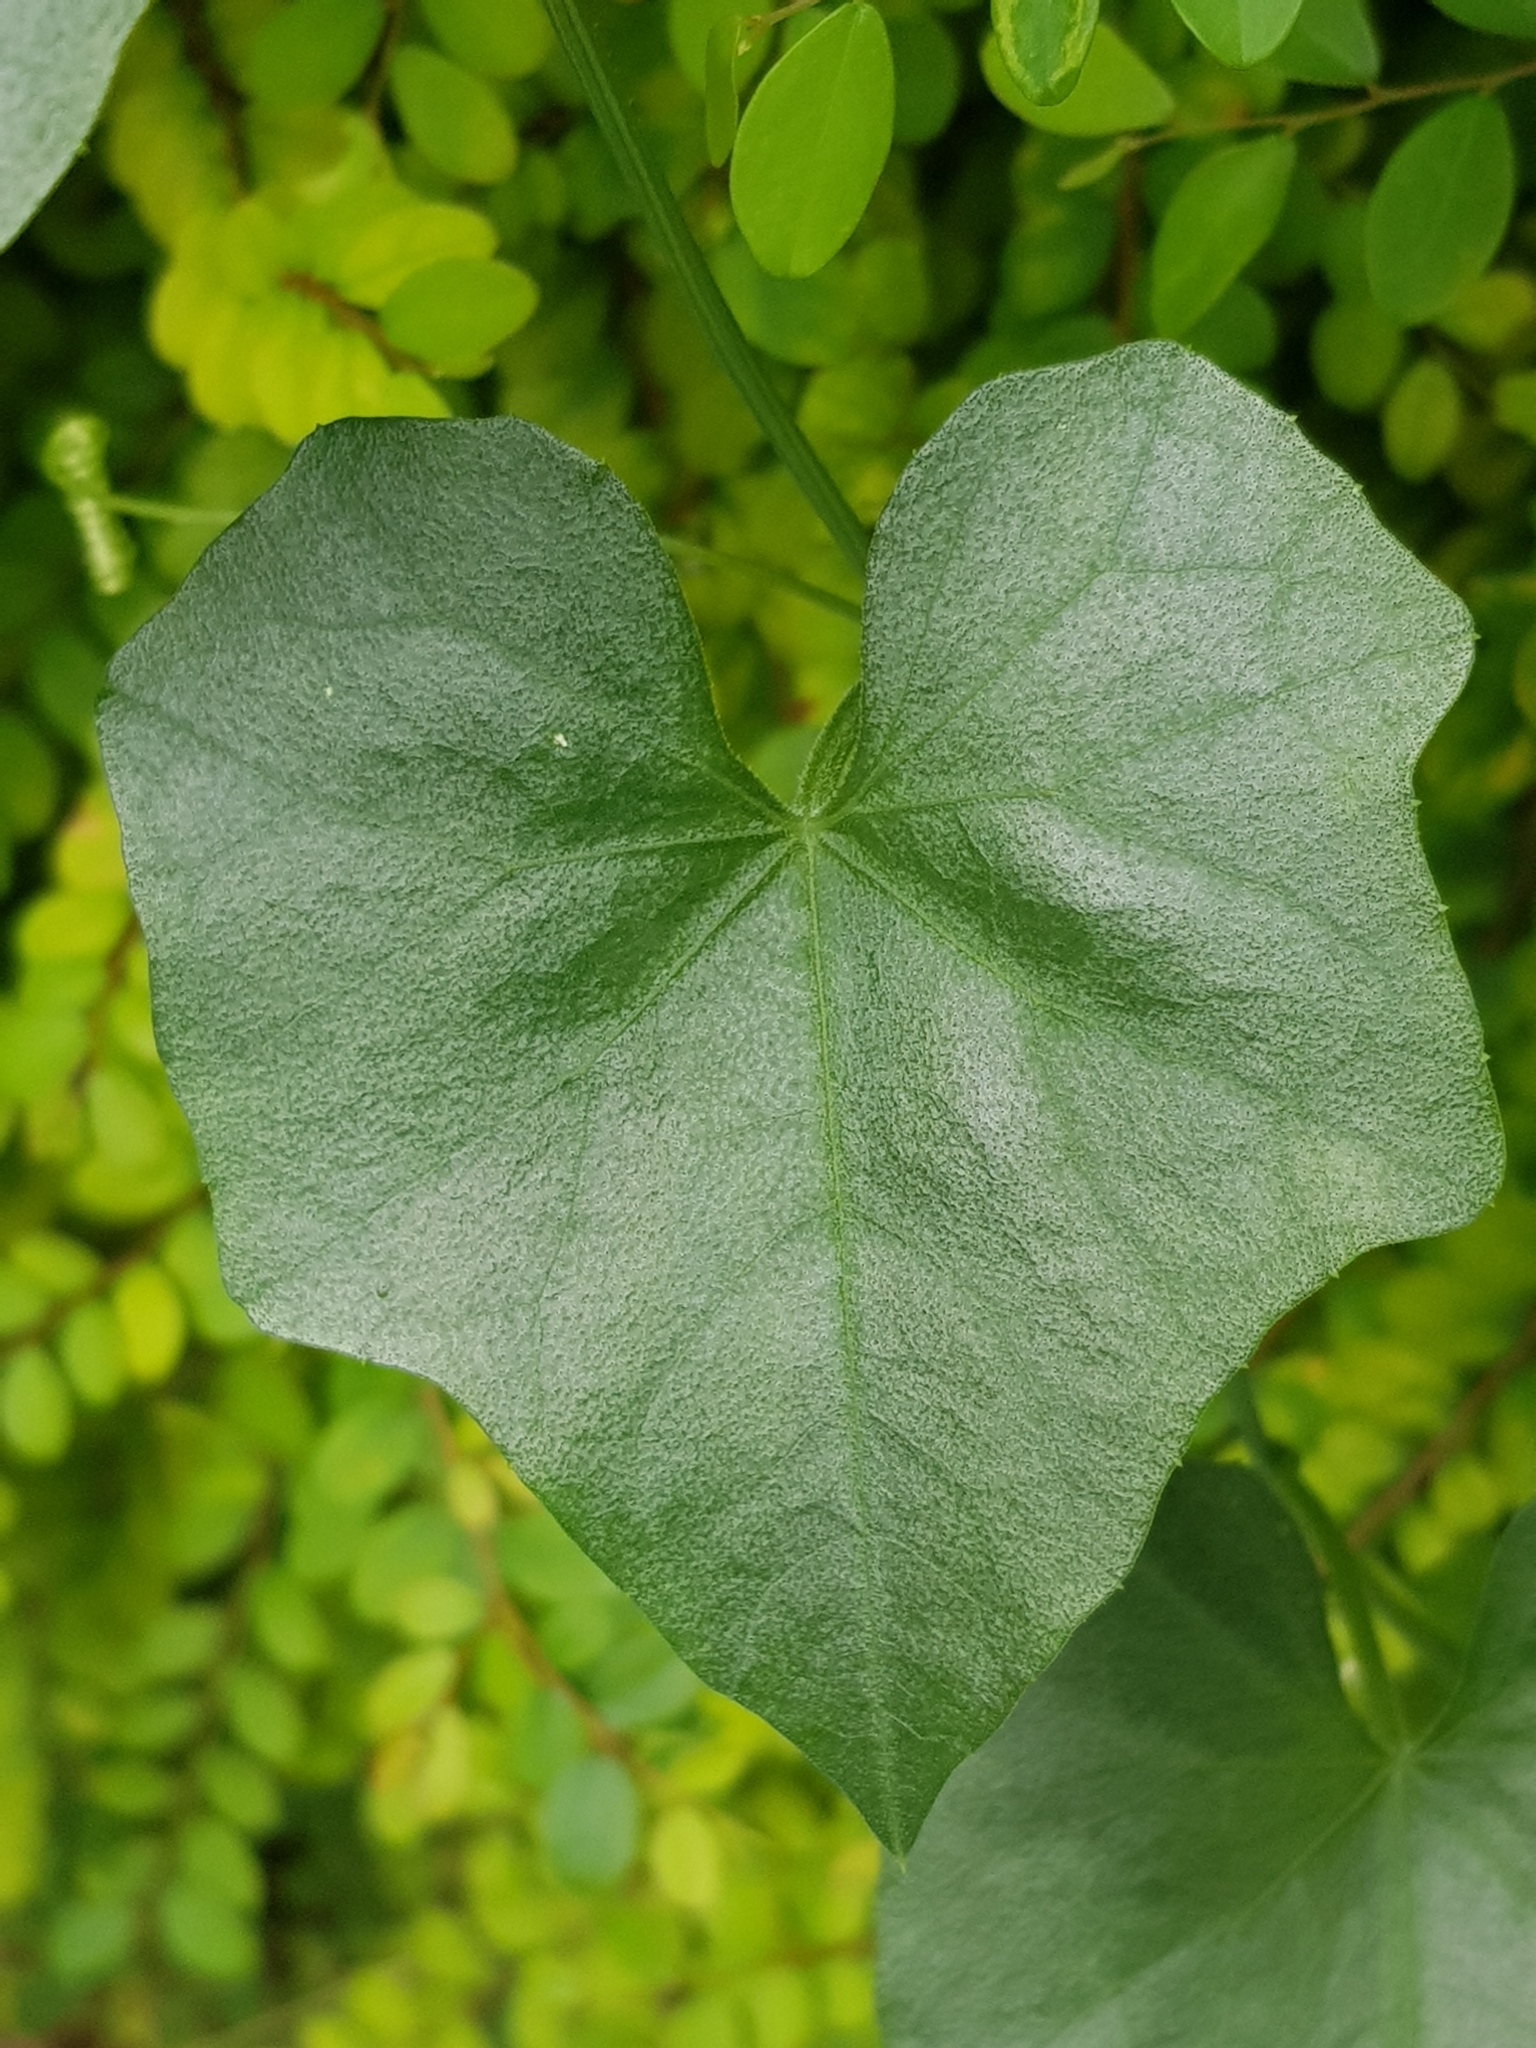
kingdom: Plantae
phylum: Tracheophyta
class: Magnoliopsida
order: Cucurbitales
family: Cucurbitaceae
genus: Melothria
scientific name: Melothria pendula
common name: Creeping-cucumber
